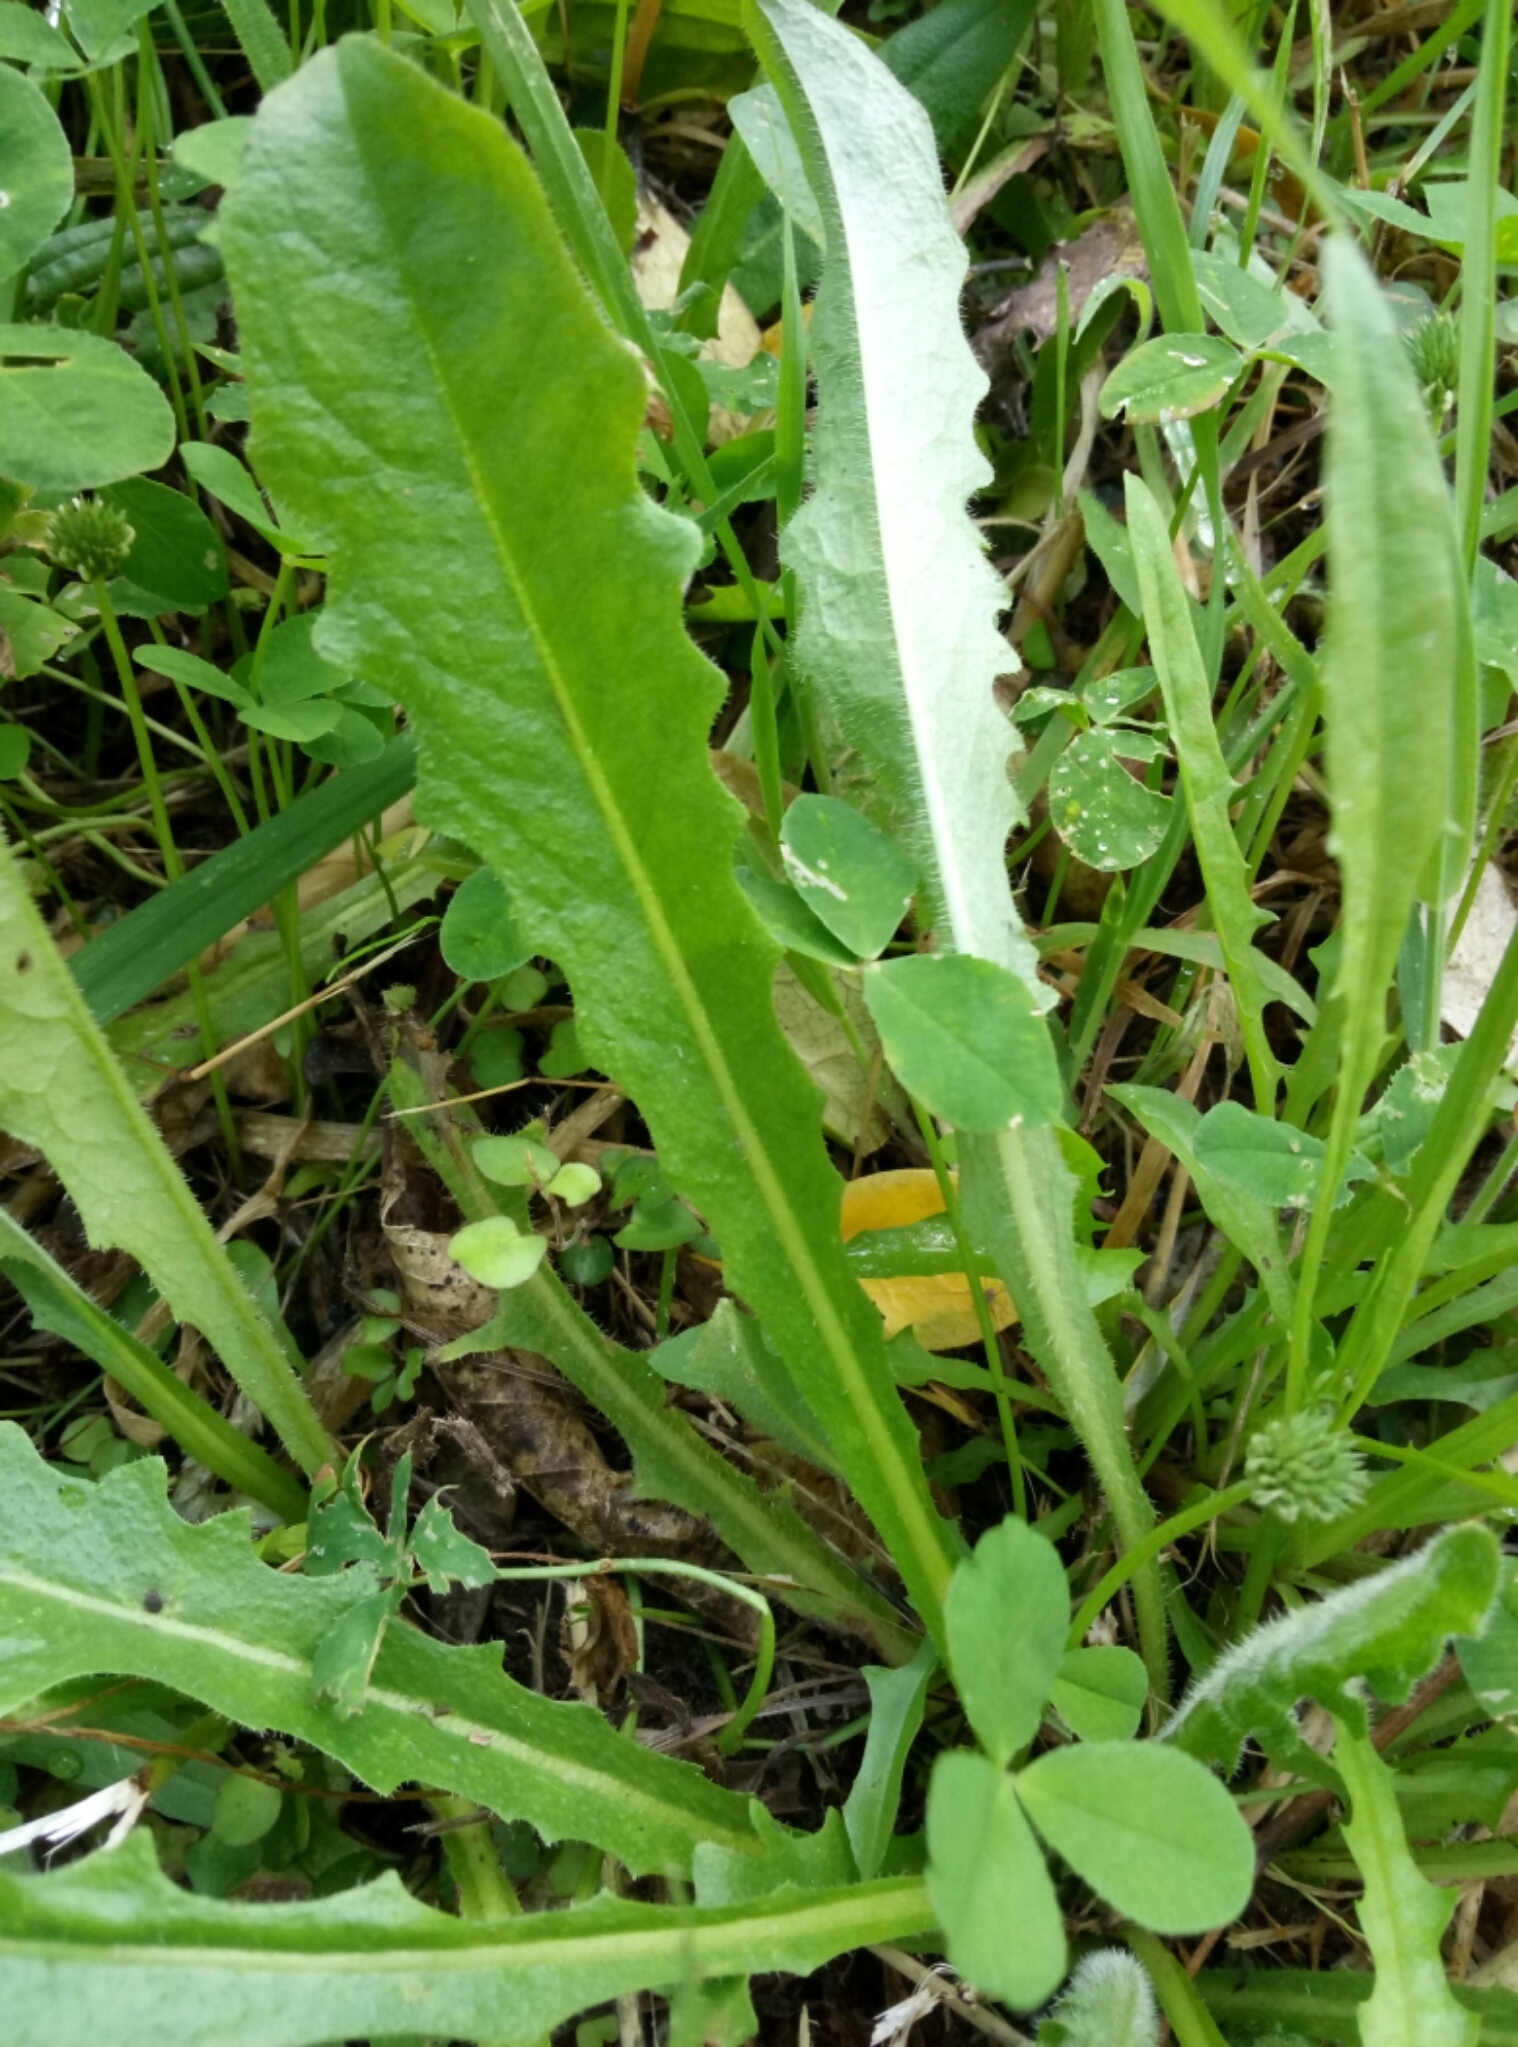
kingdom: Plantae
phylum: Tracheophyta
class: Magnoliopsida
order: Asterales
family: Asteraceae
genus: Hypochaeris
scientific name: Hypochaeris radicata
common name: Flatweed
